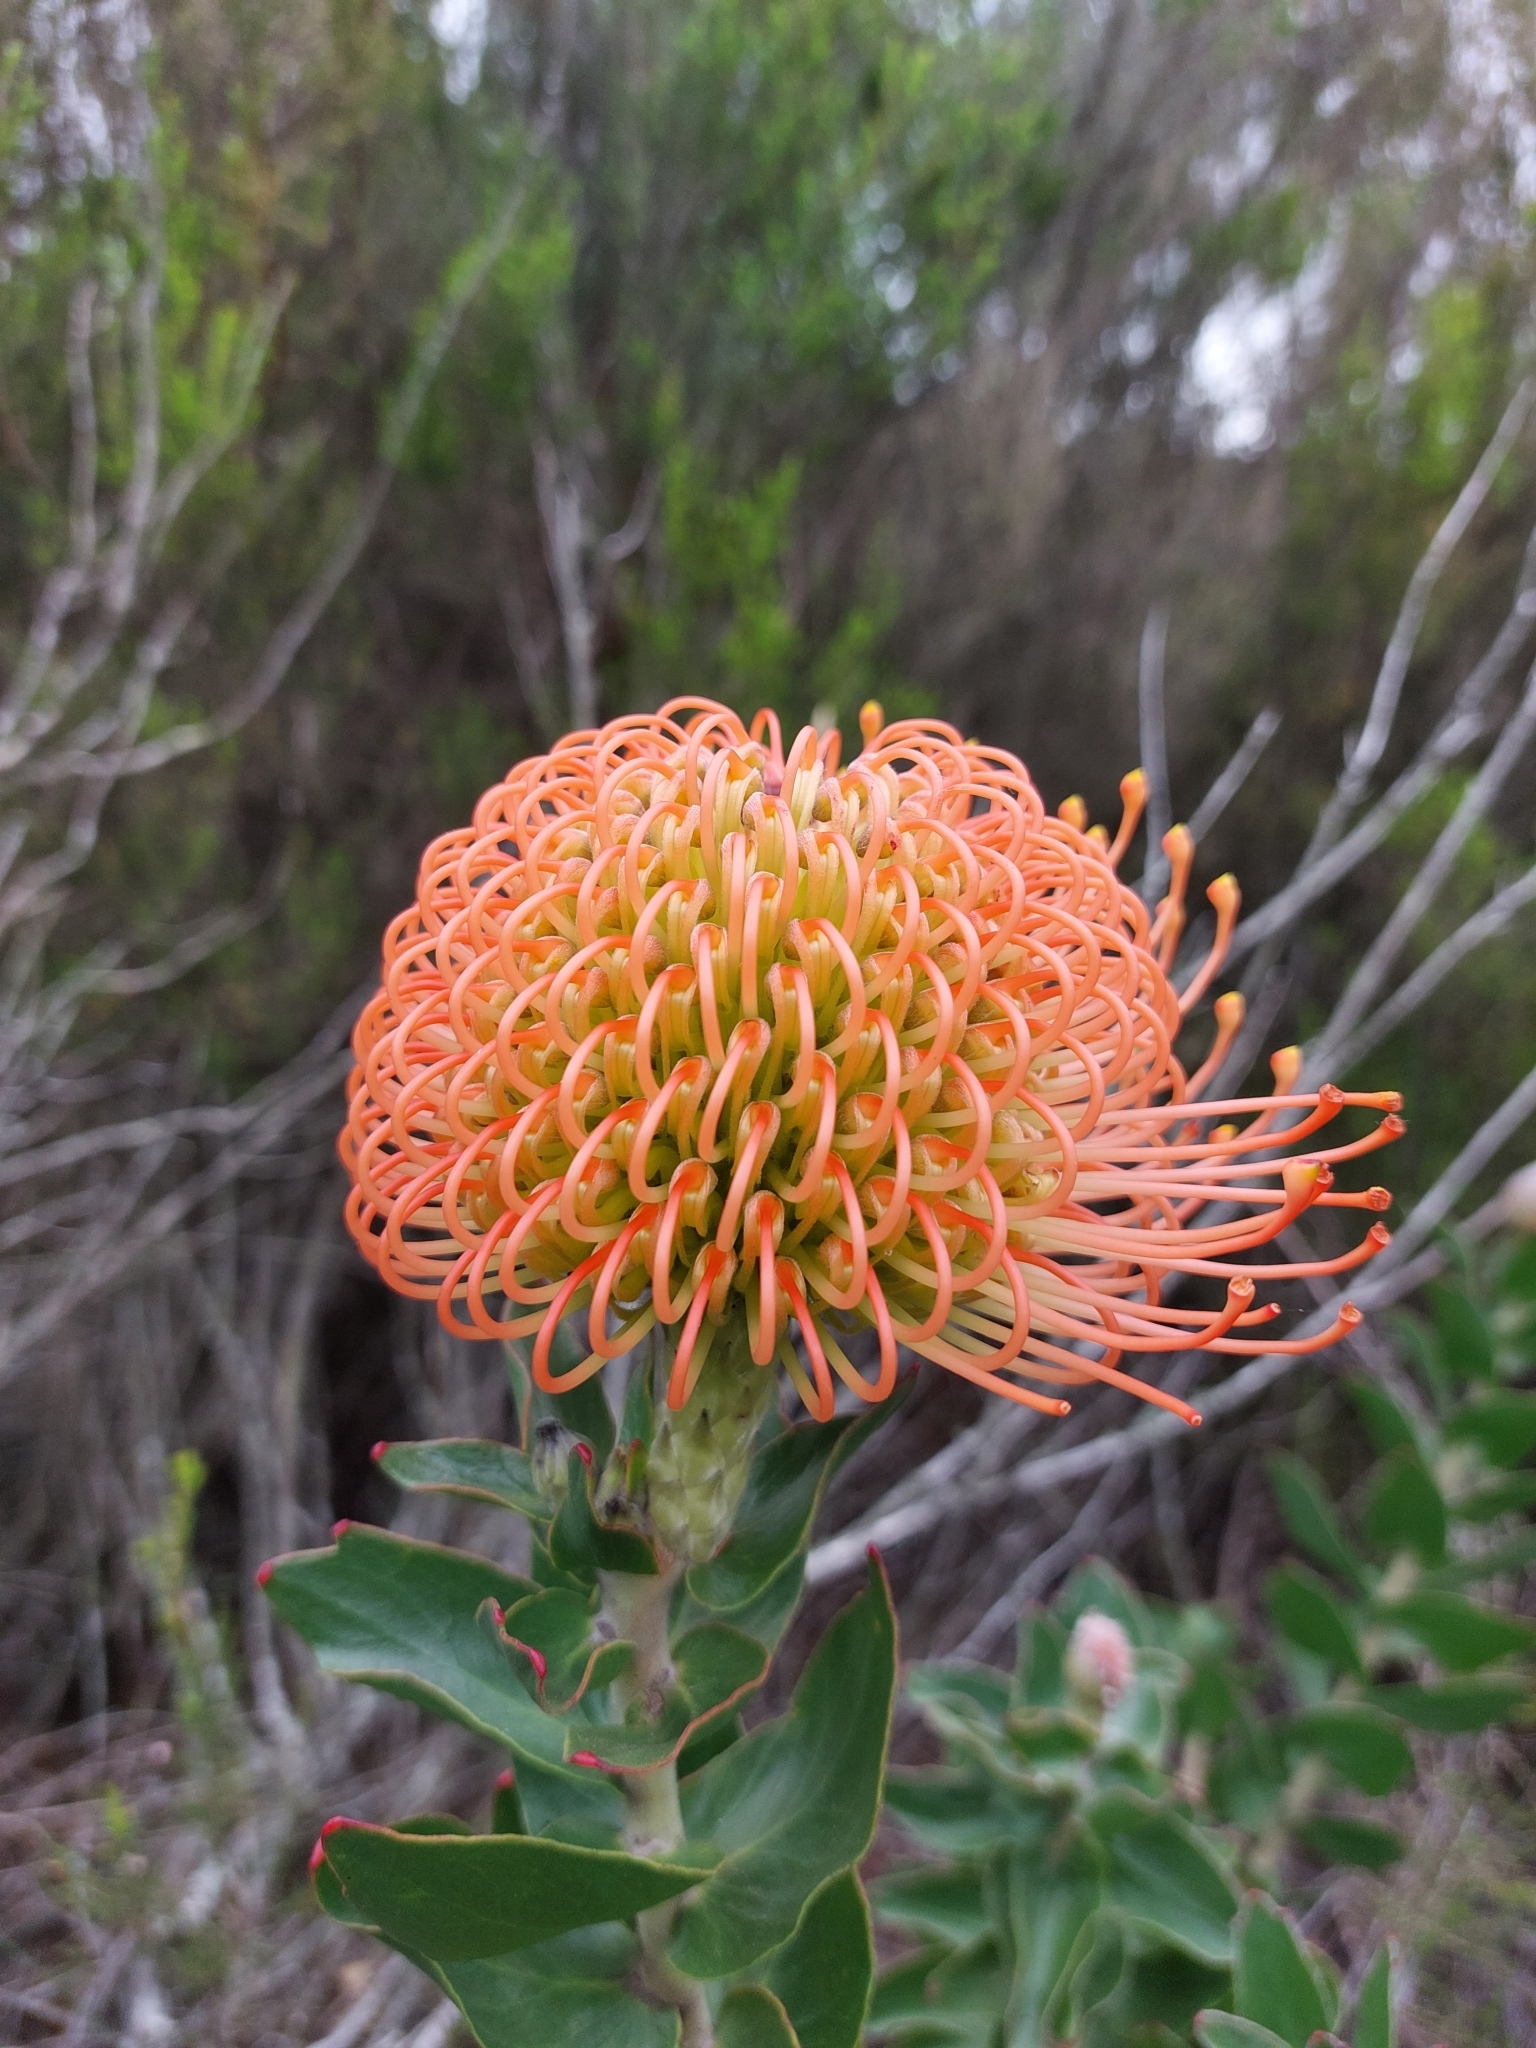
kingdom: Plantae
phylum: Tracheophyta
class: Magnoliopsida
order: Proteales
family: Proteaceae
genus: Leucospermum
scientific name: Leucospermum cordifolium
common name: Red pincushion-protea
